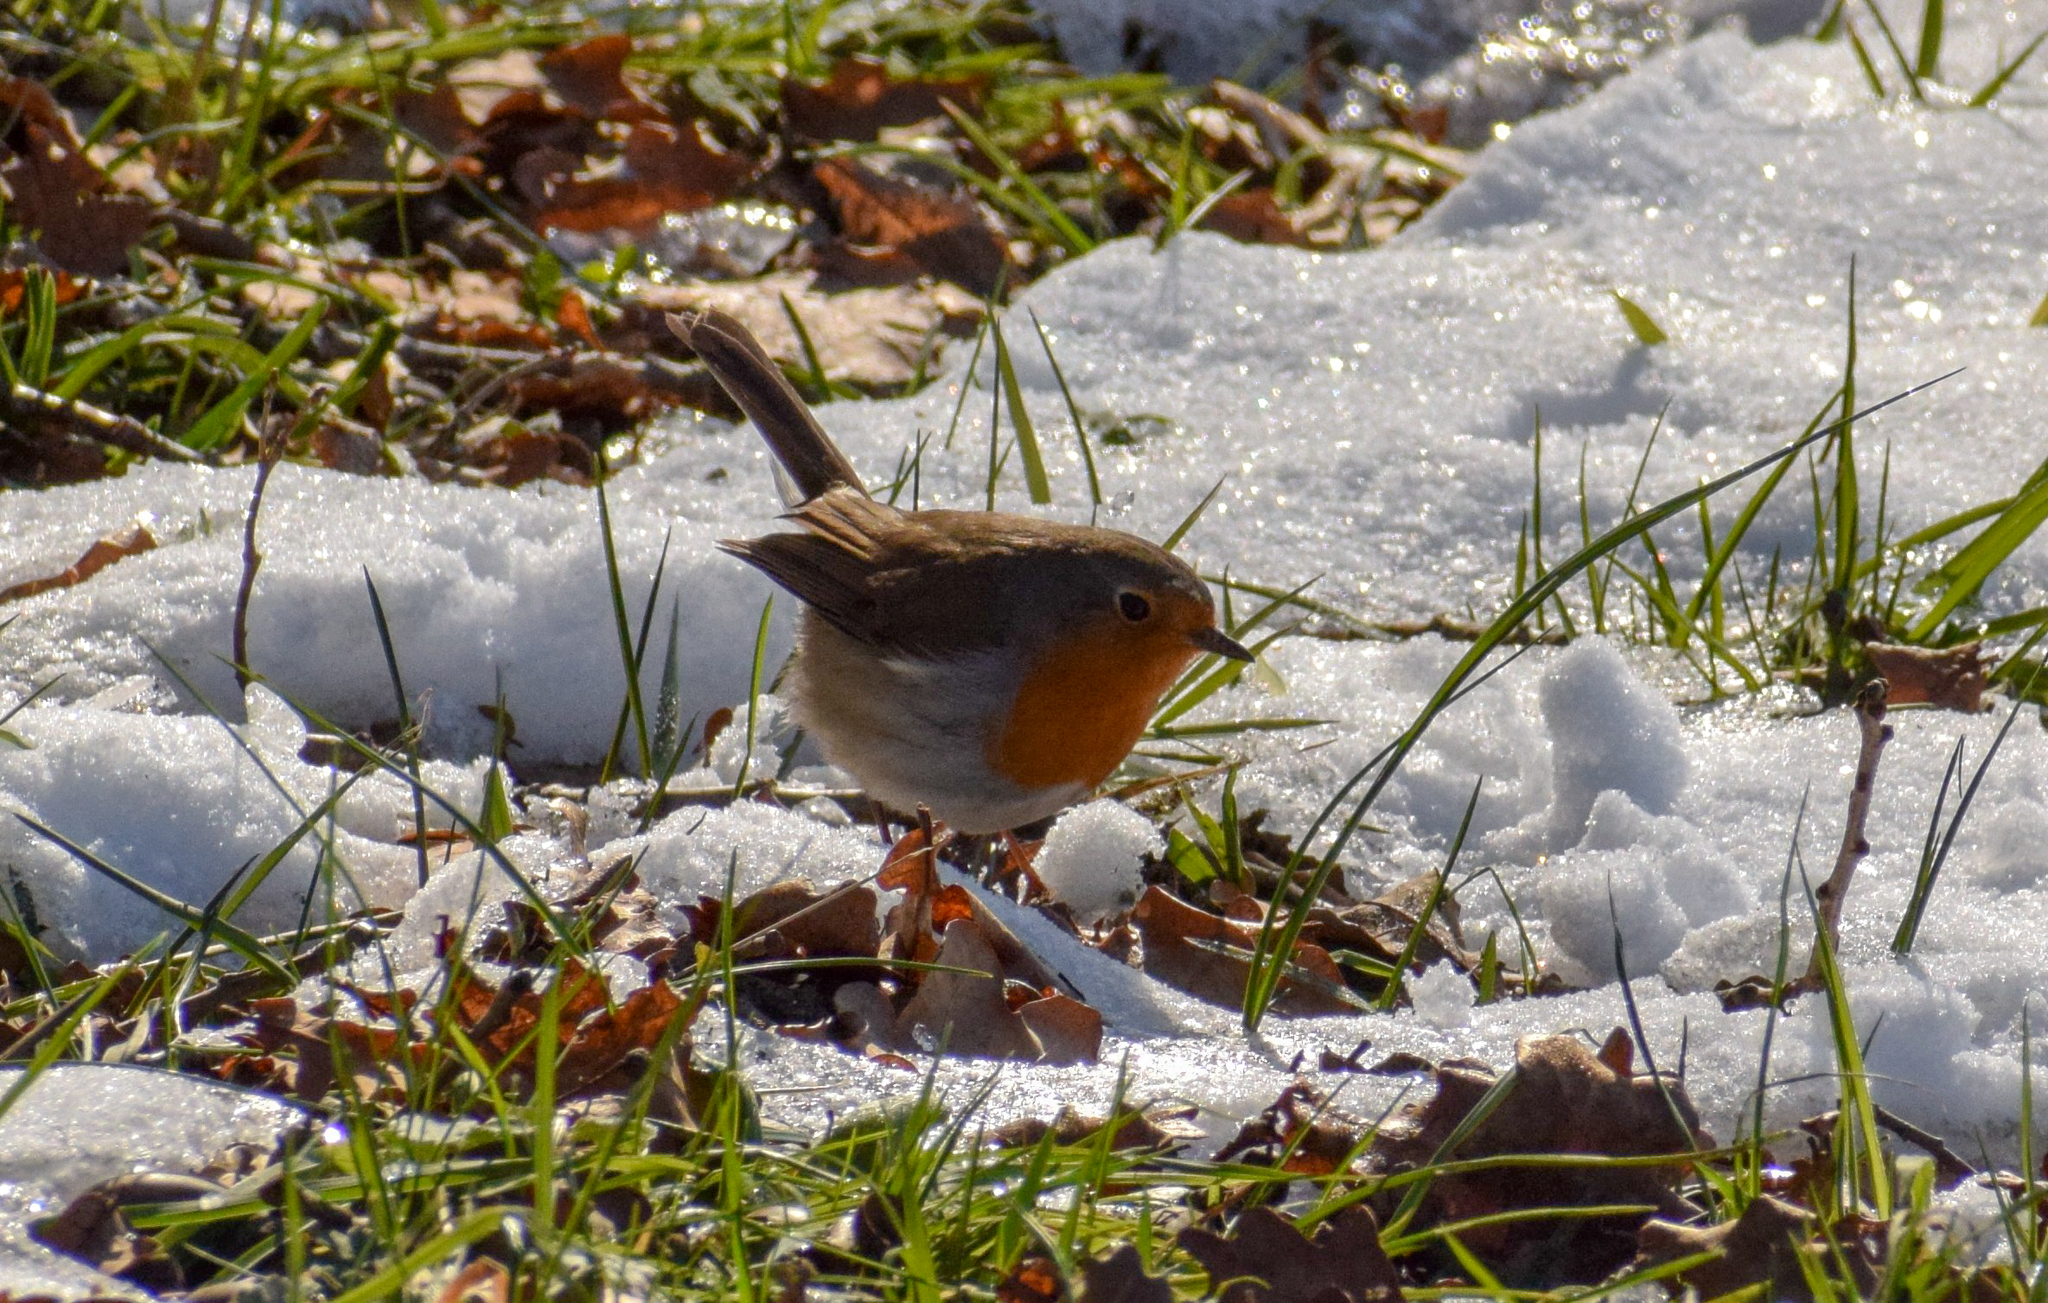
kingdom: Animalia
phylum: Chordata
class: Aves
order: Passeriformes
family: Muscicapidae
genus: Erithacus
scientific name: Erithacus rubecula
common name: European robin
